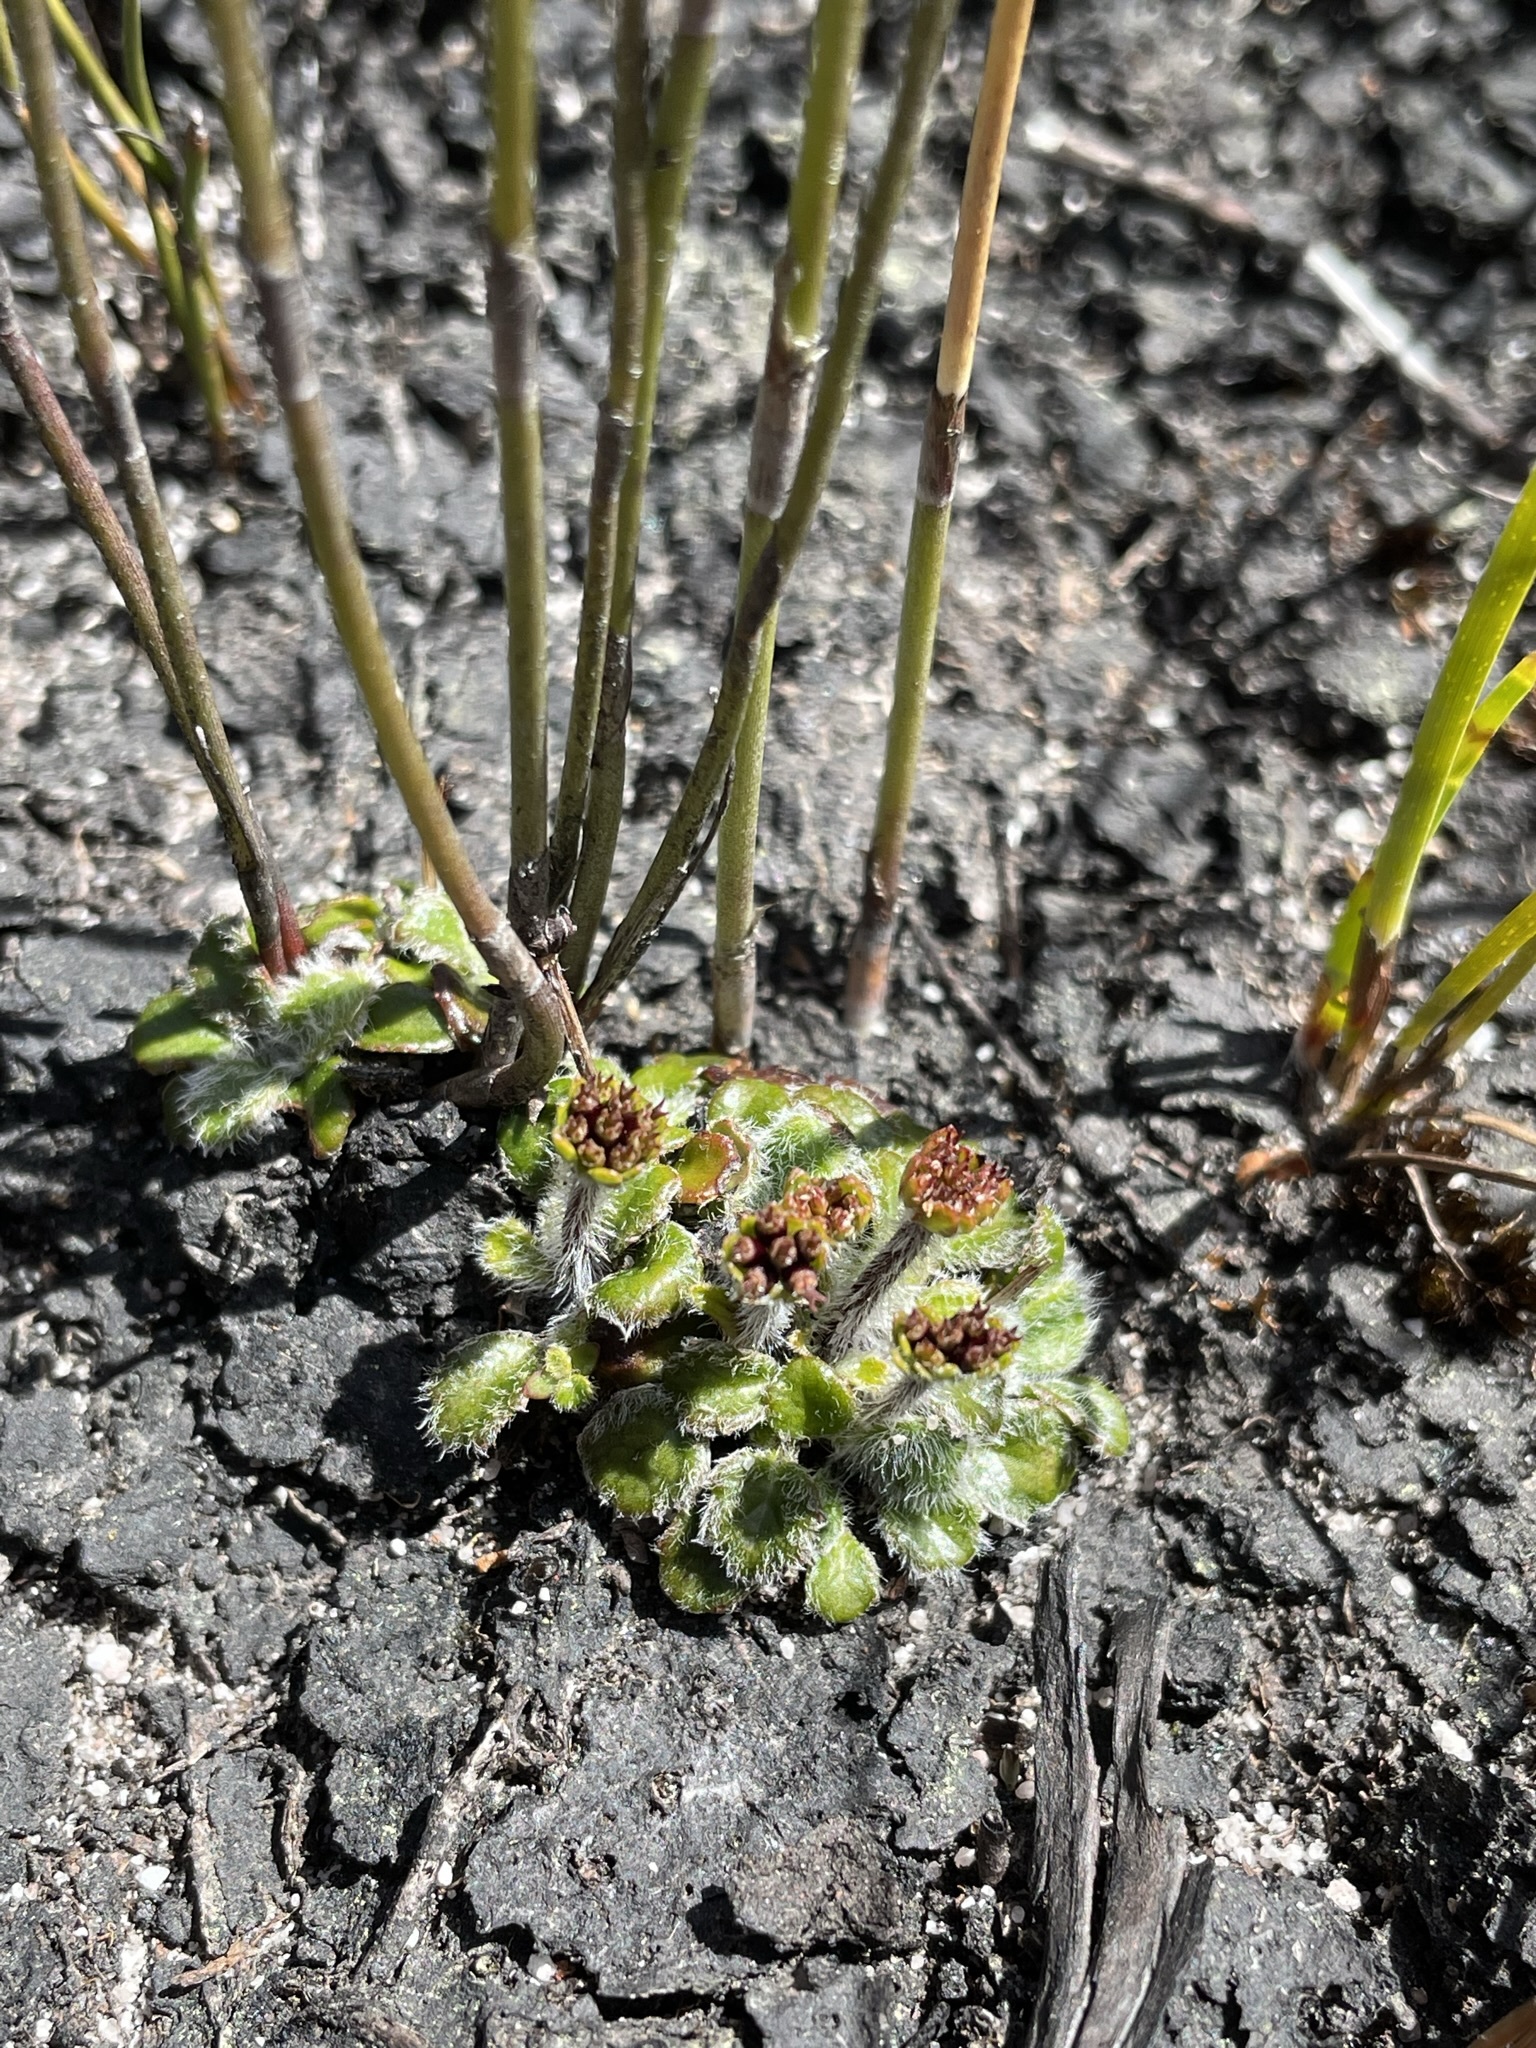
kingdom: Plantae
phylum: Tracheophyta
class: Magnoliopsida
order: Apiales
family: Apiaceae
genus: Actinotus
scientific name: Actinotus bellidioides
